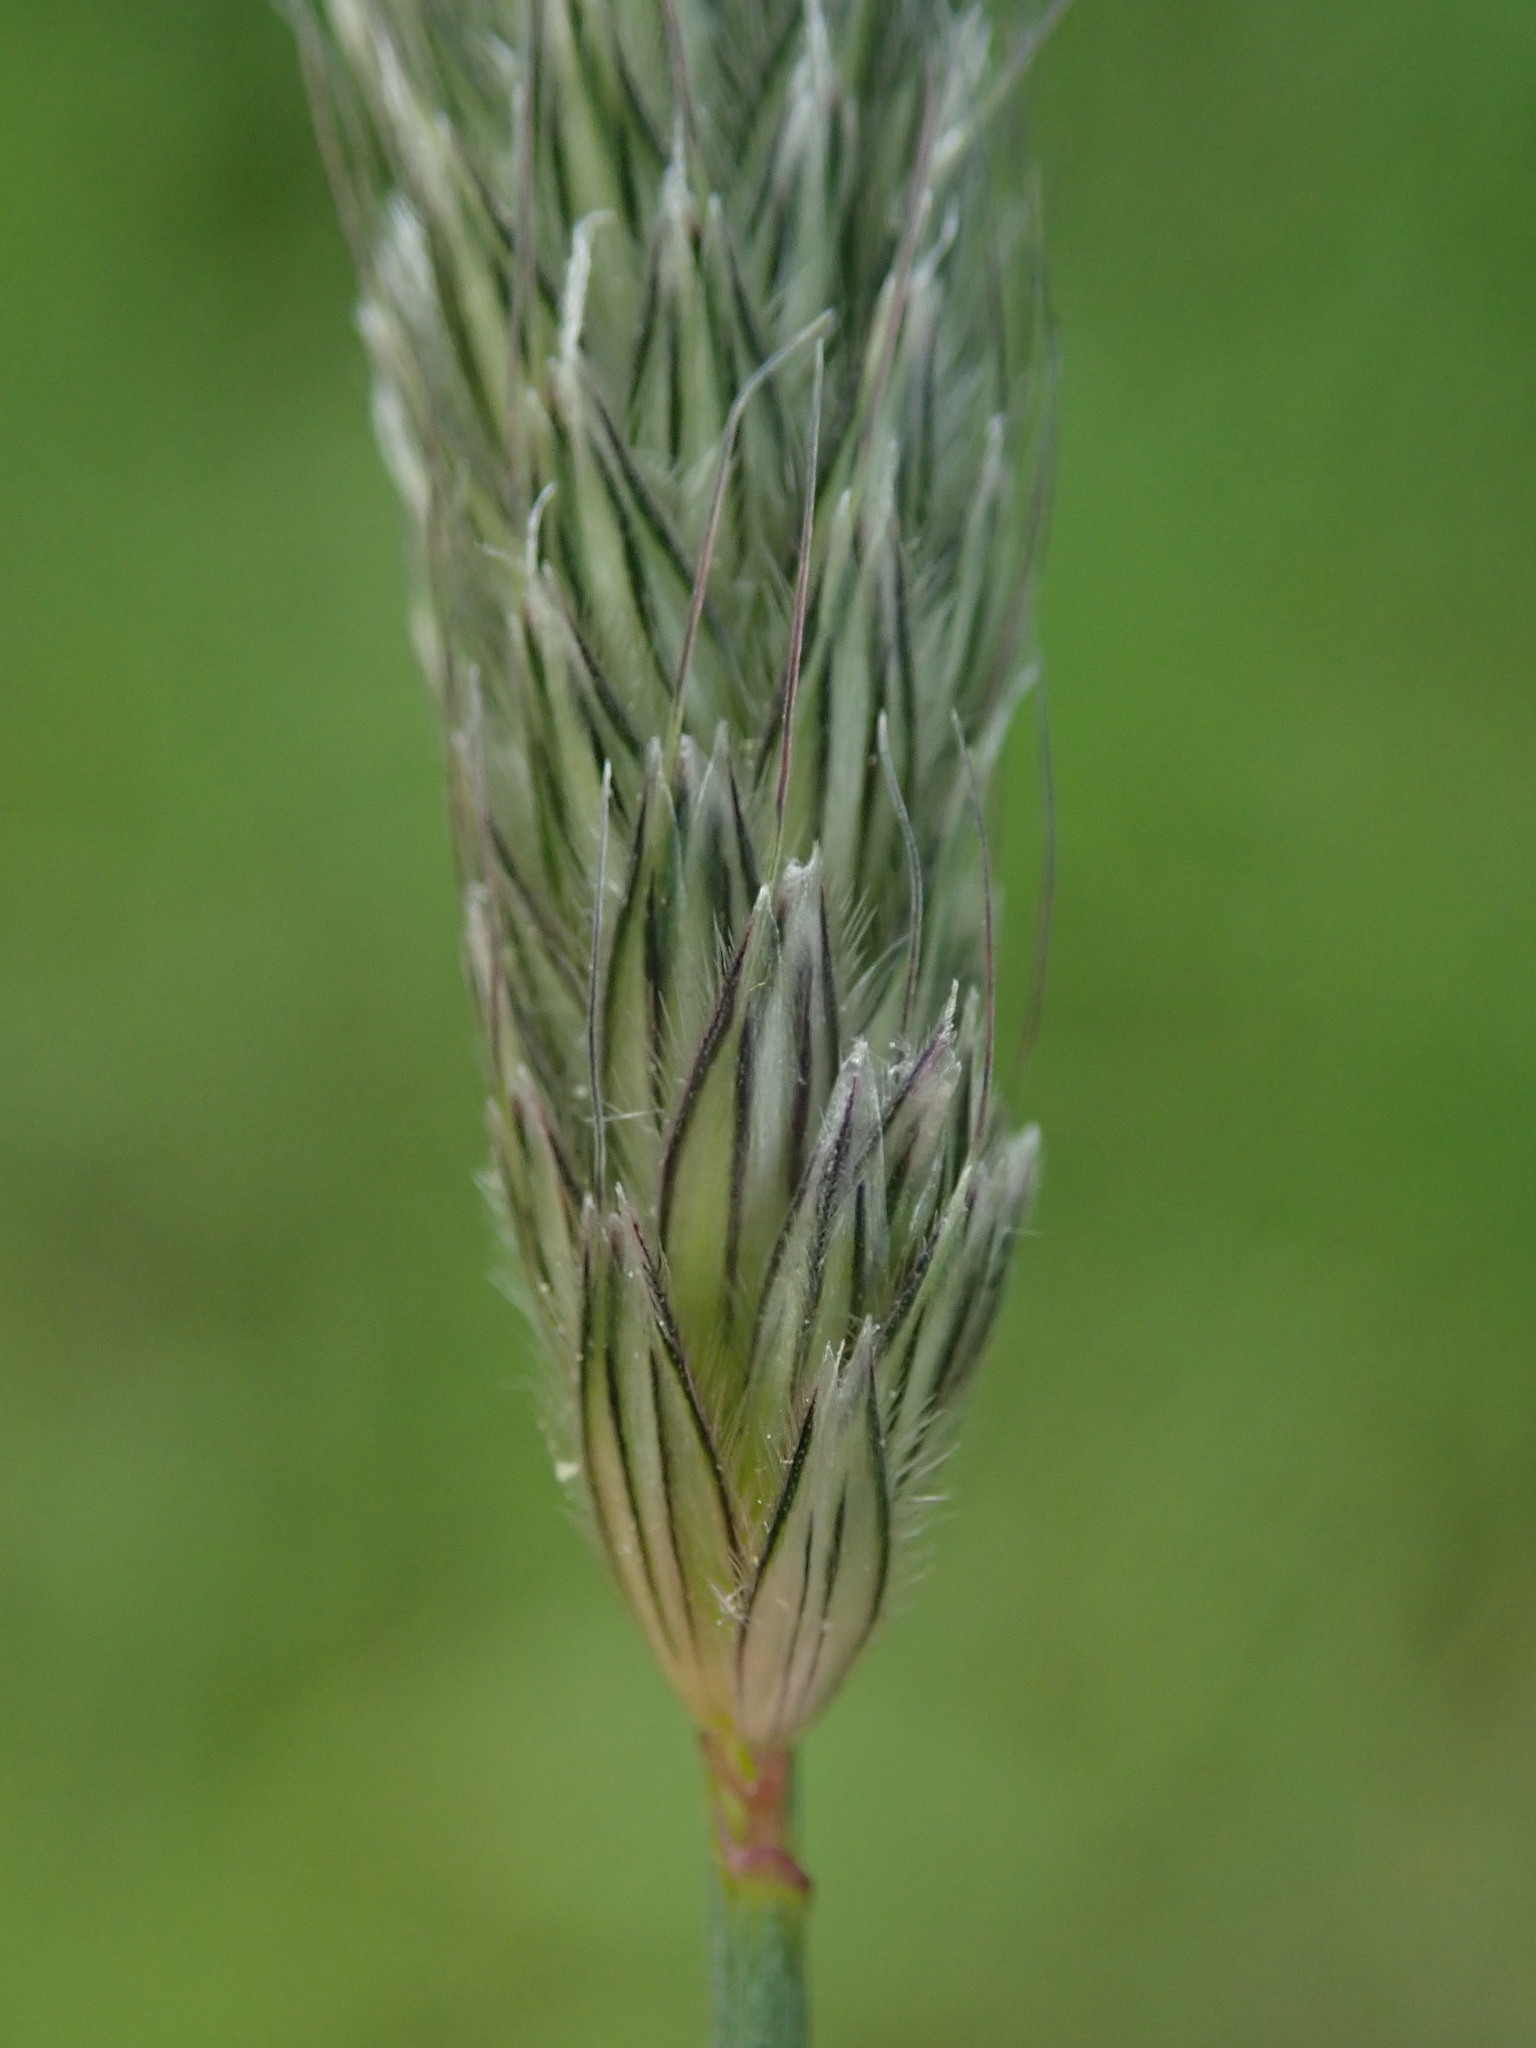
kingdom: Plantae
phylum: Tracheophyta
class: Liliopsida
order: Poales
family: Poaceae
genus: Alopecurus
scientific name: Alopecurus pratensis
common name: Meadow foxtail
